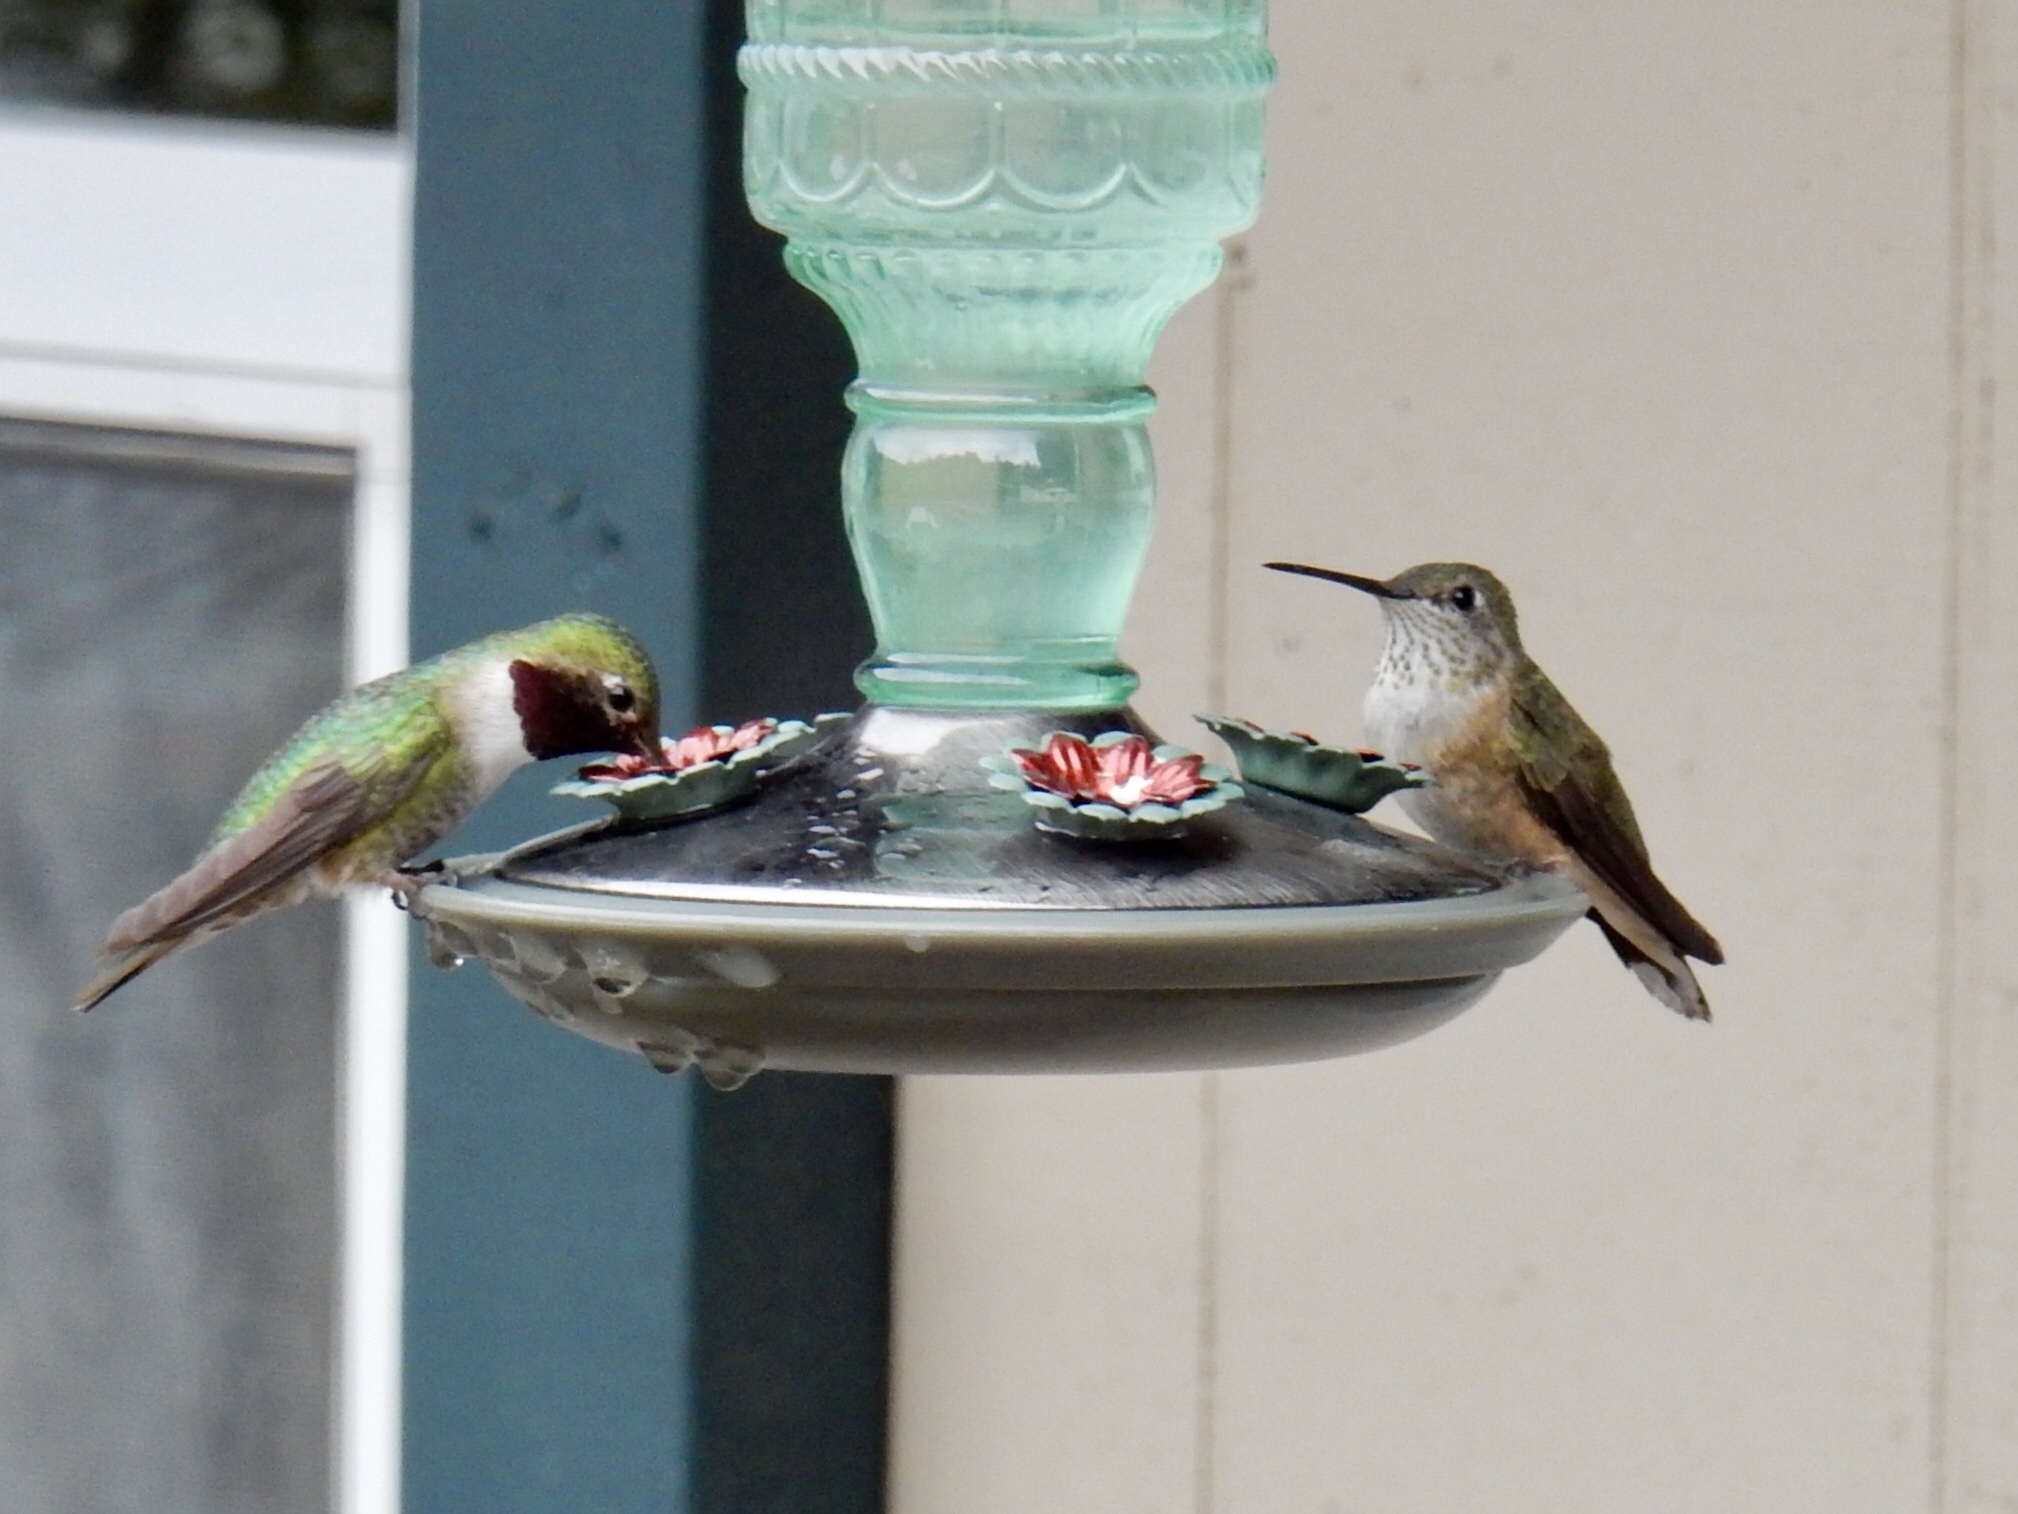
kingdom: Animalia
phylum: Chordata
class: Aves
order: Apodiformes
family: Trochilidae
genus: Selasphorus
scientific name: Selasphorus platycercus
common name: Broad-tailed hummingbird
